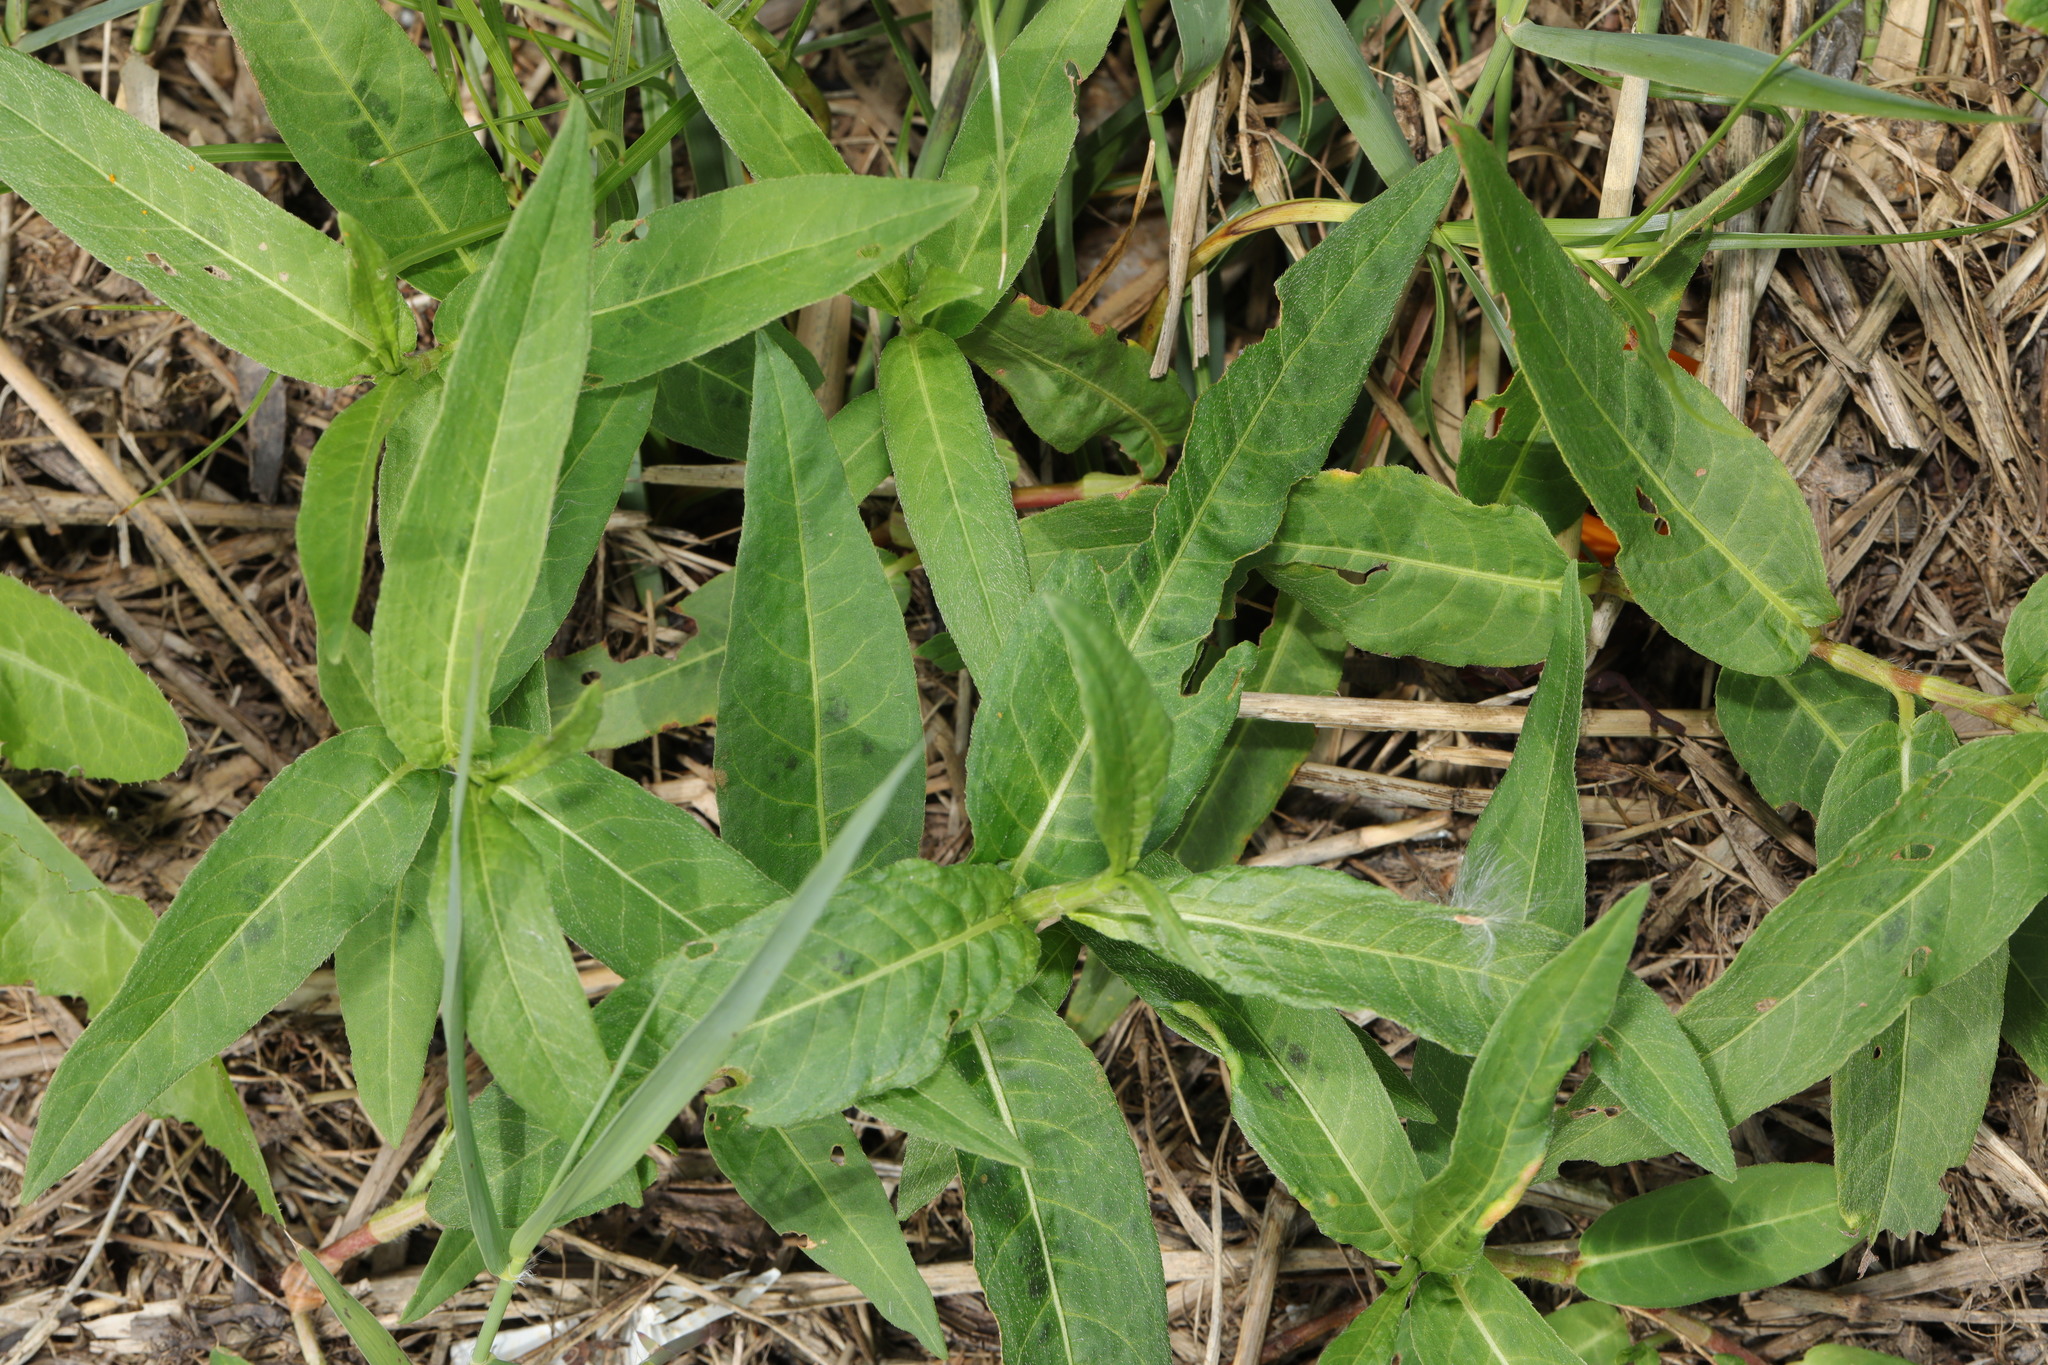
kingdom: Plantae
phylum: Tracheophyta
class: Magnoliopsida
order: Caryophyllales
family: Polygonaceae
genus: Persicaria
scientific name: Persicaria amphibia
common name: Amphibious bistort
